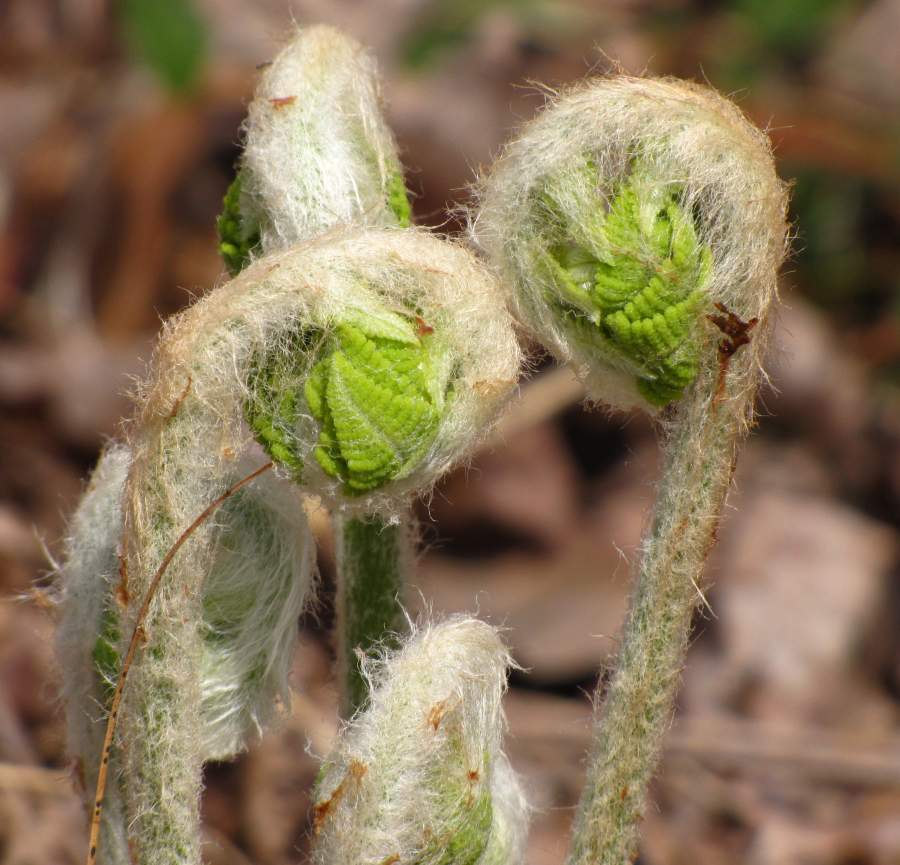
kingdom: Plantae
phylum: Tracheophyta
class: Polypodiopsida
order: Osmundales
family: Osmundaceae
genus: Osmundastrum
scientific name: Osmundastrum cinnamomeum
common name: Cinnamon fern
